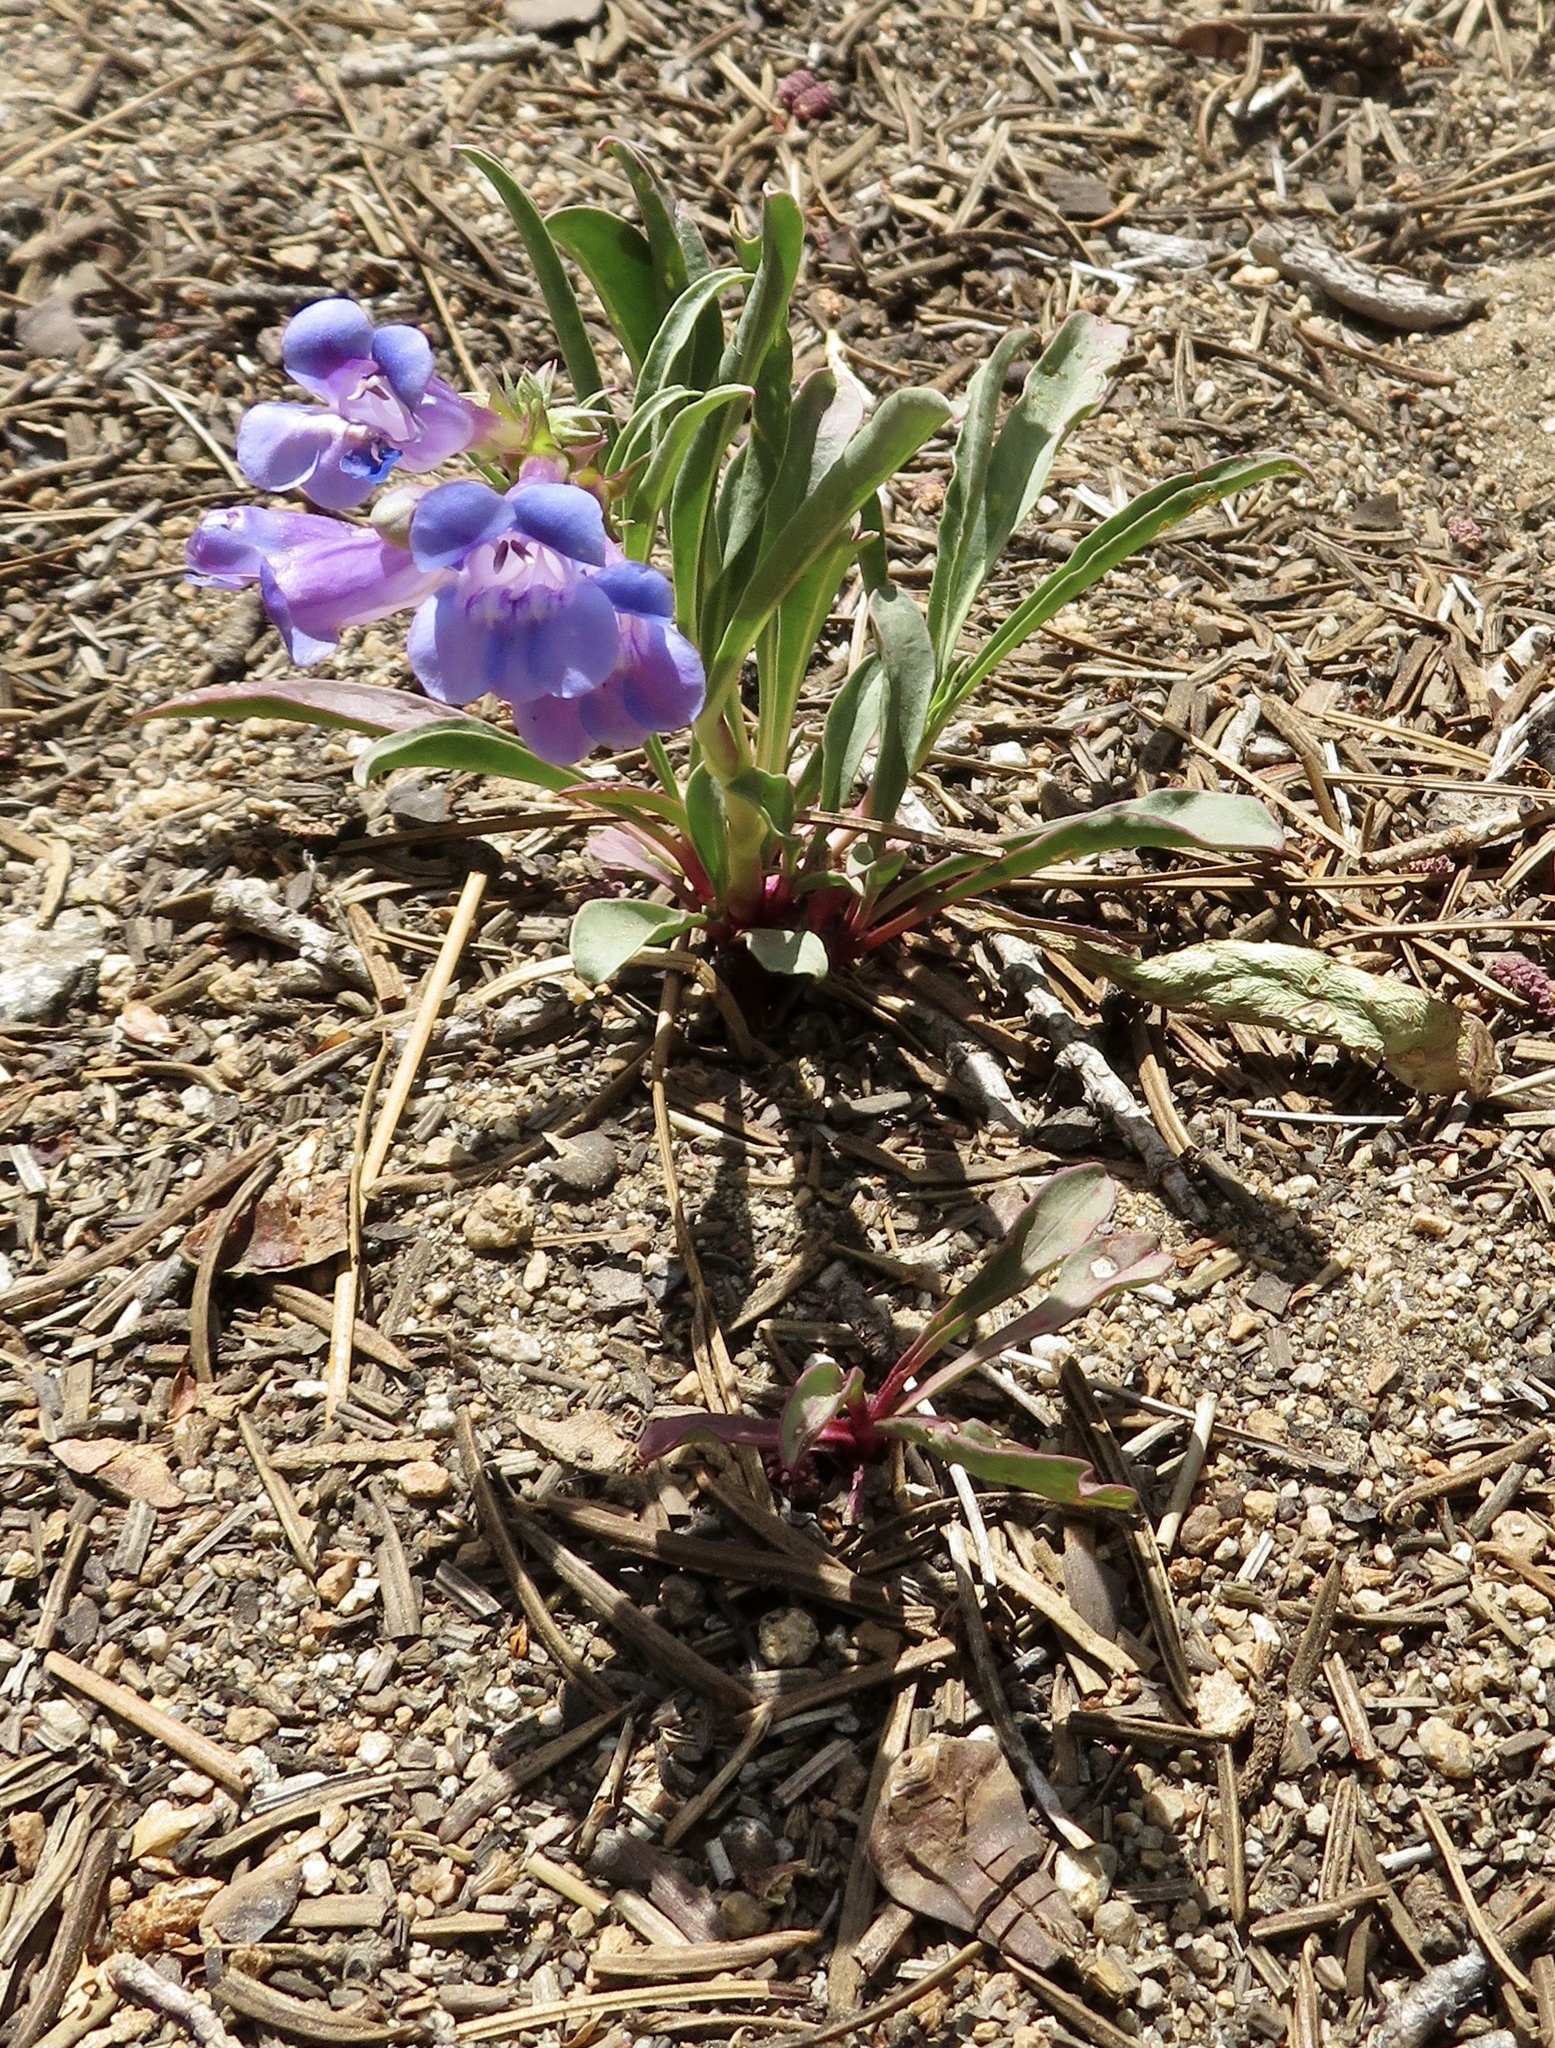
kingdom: Plantae
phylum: Tracheophyta
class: Magnoliopsida
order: Lamiales
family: Plantaginaceae
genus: Penstemon
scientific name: Penstemon speciosus
